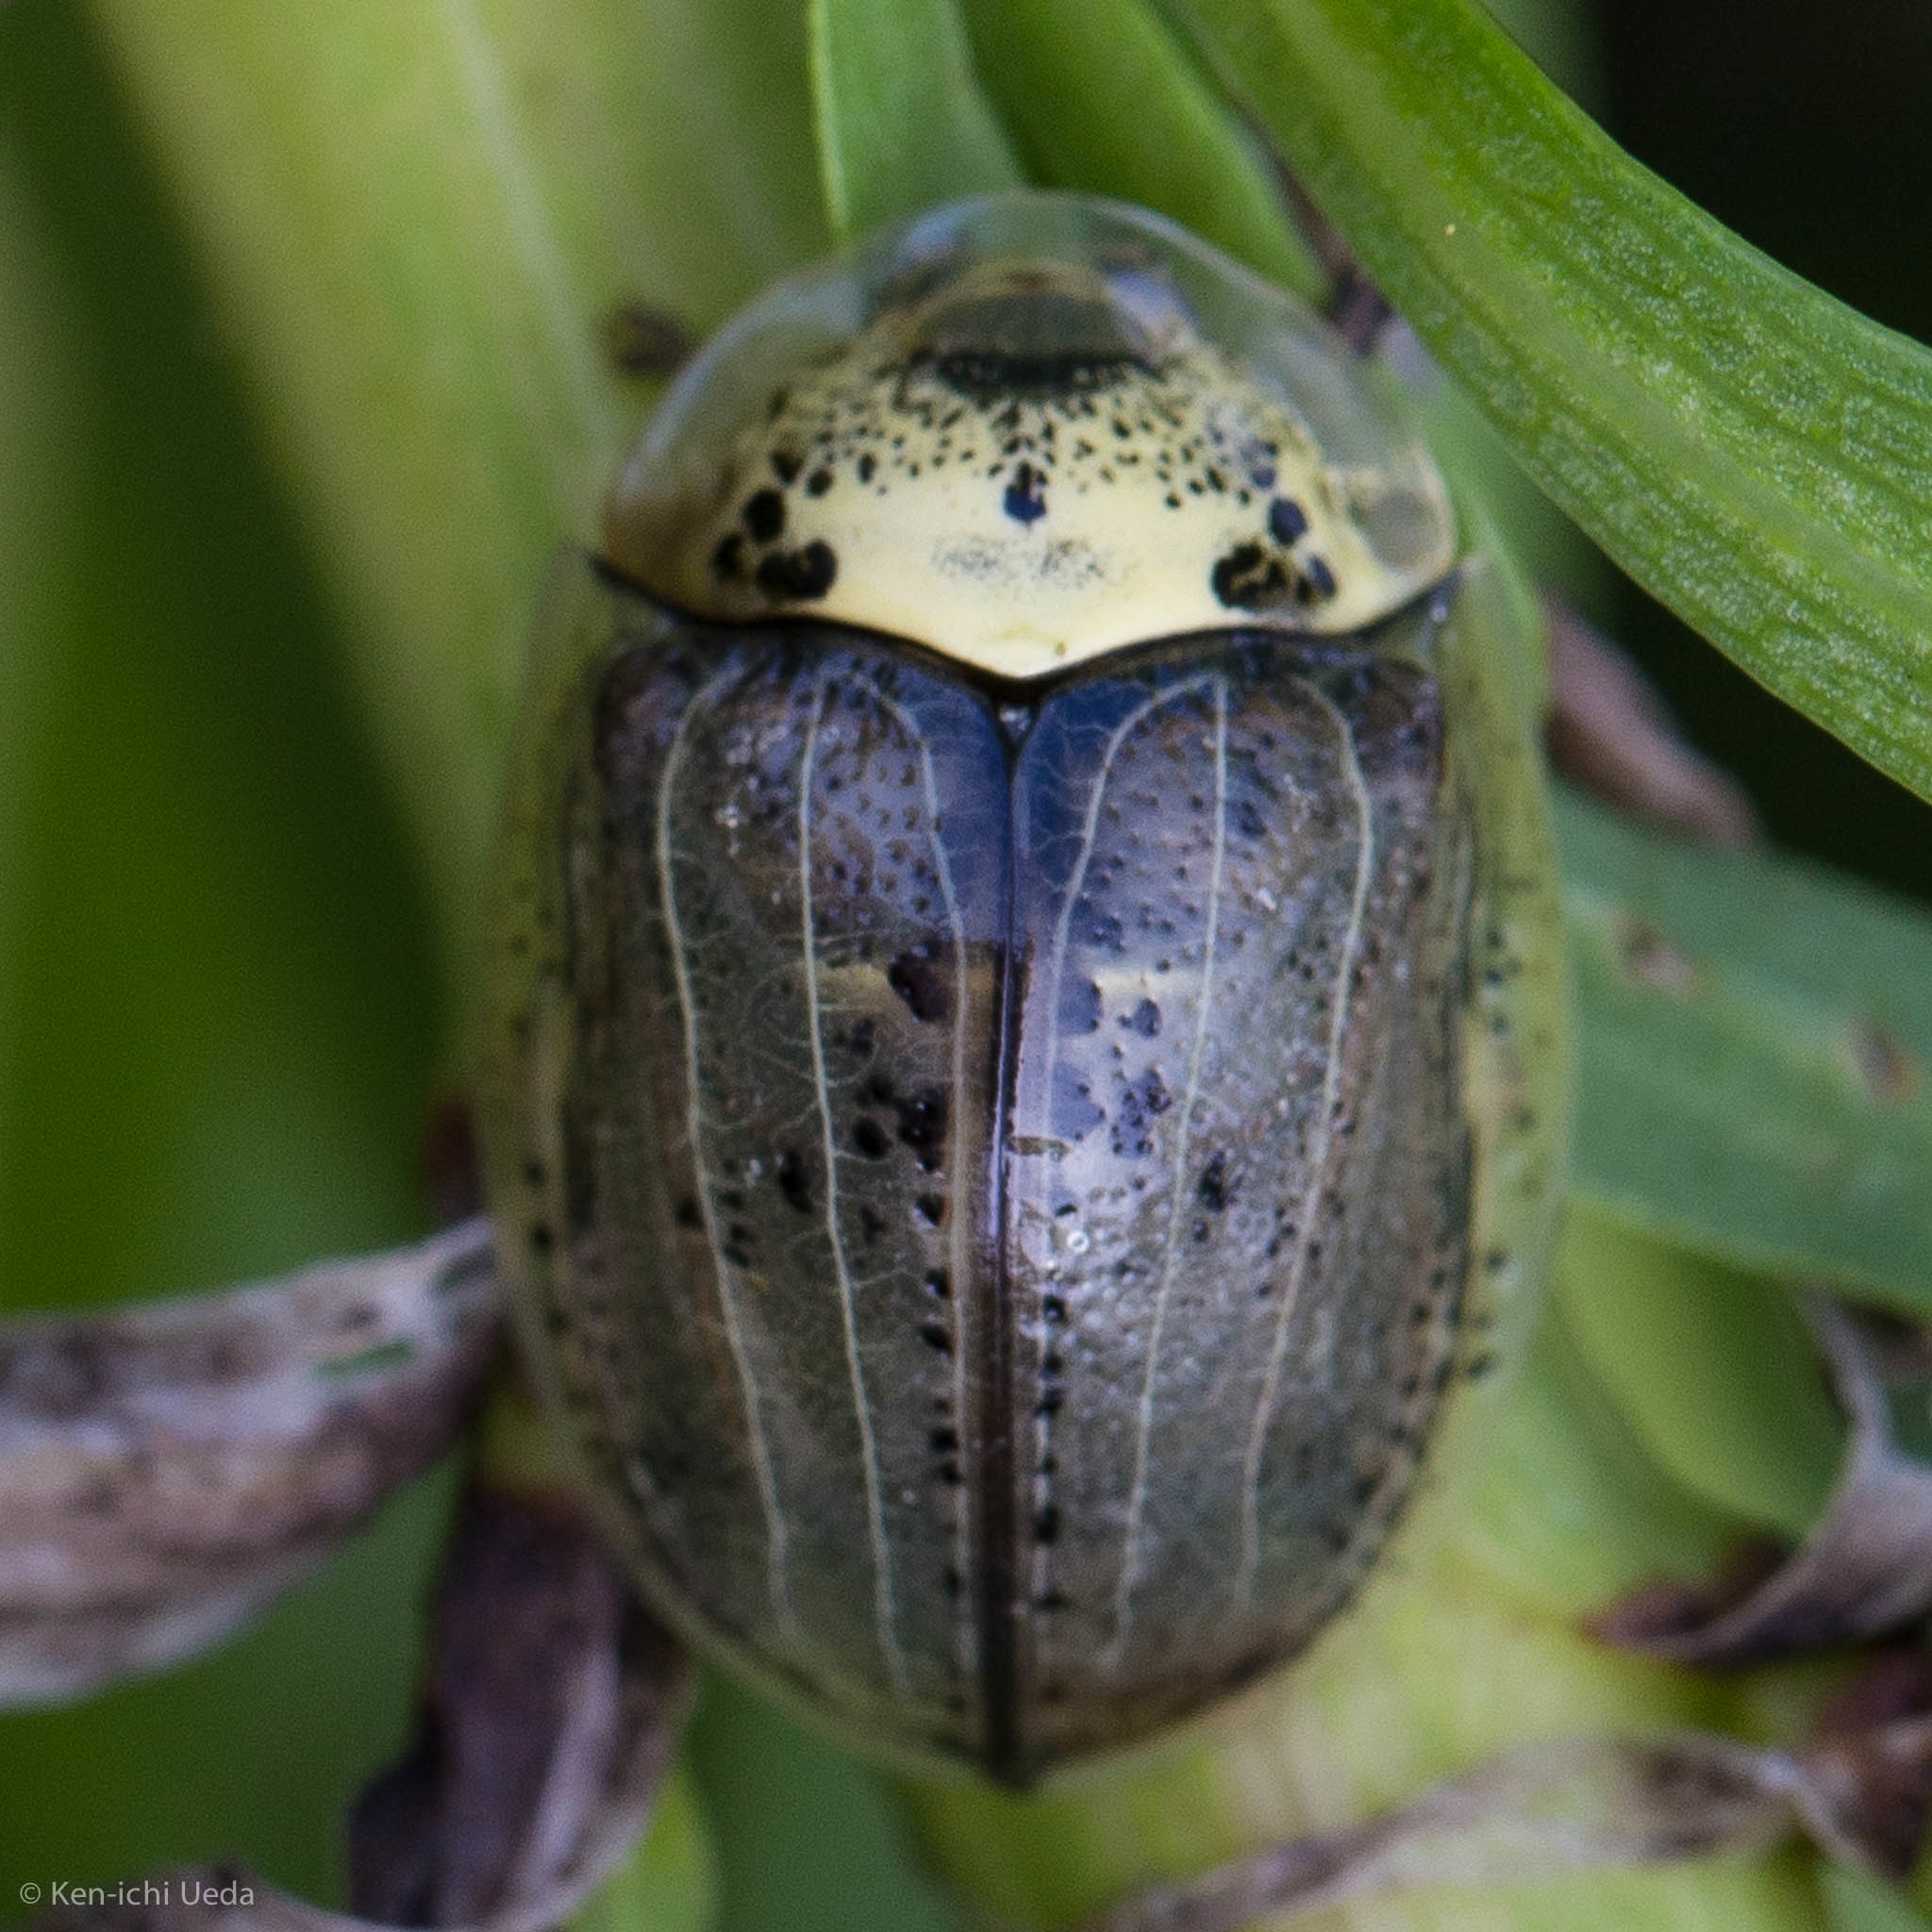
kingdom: Animalia
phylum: Arthropoda
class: Insecta
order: Coleoptera
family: Chrysomelidae
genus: Physonota
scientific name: Physonota alutacea
